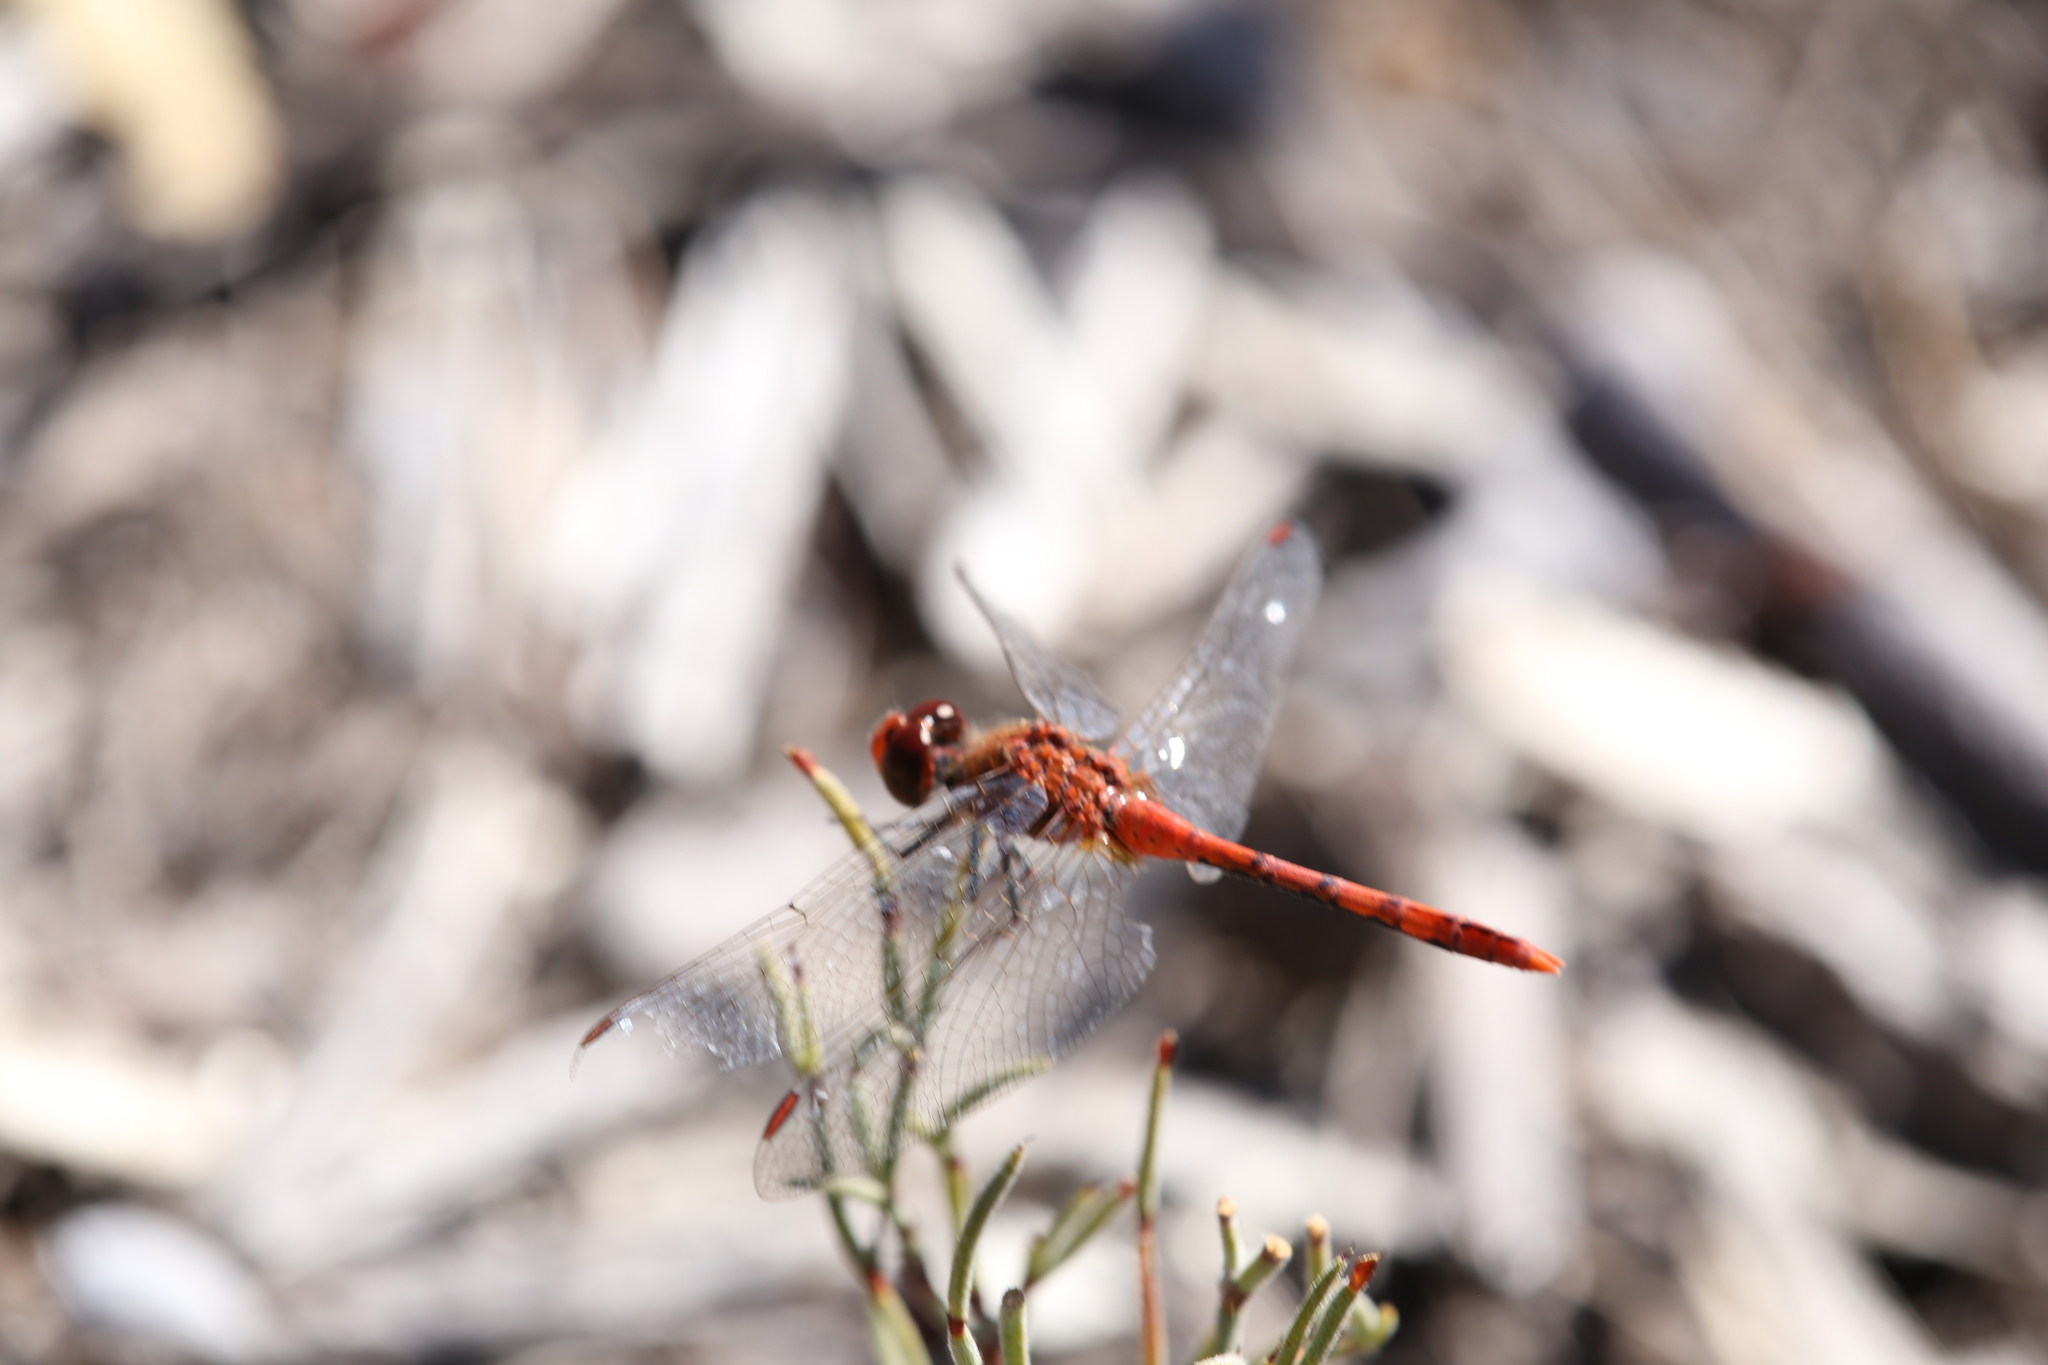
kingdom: Animalia
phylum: Arthropoda
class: Insecta
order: Odonata
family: Libellulidae
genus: Diplacodes
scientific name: Diplacodes bipunctata
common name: Red percher dragonfly
